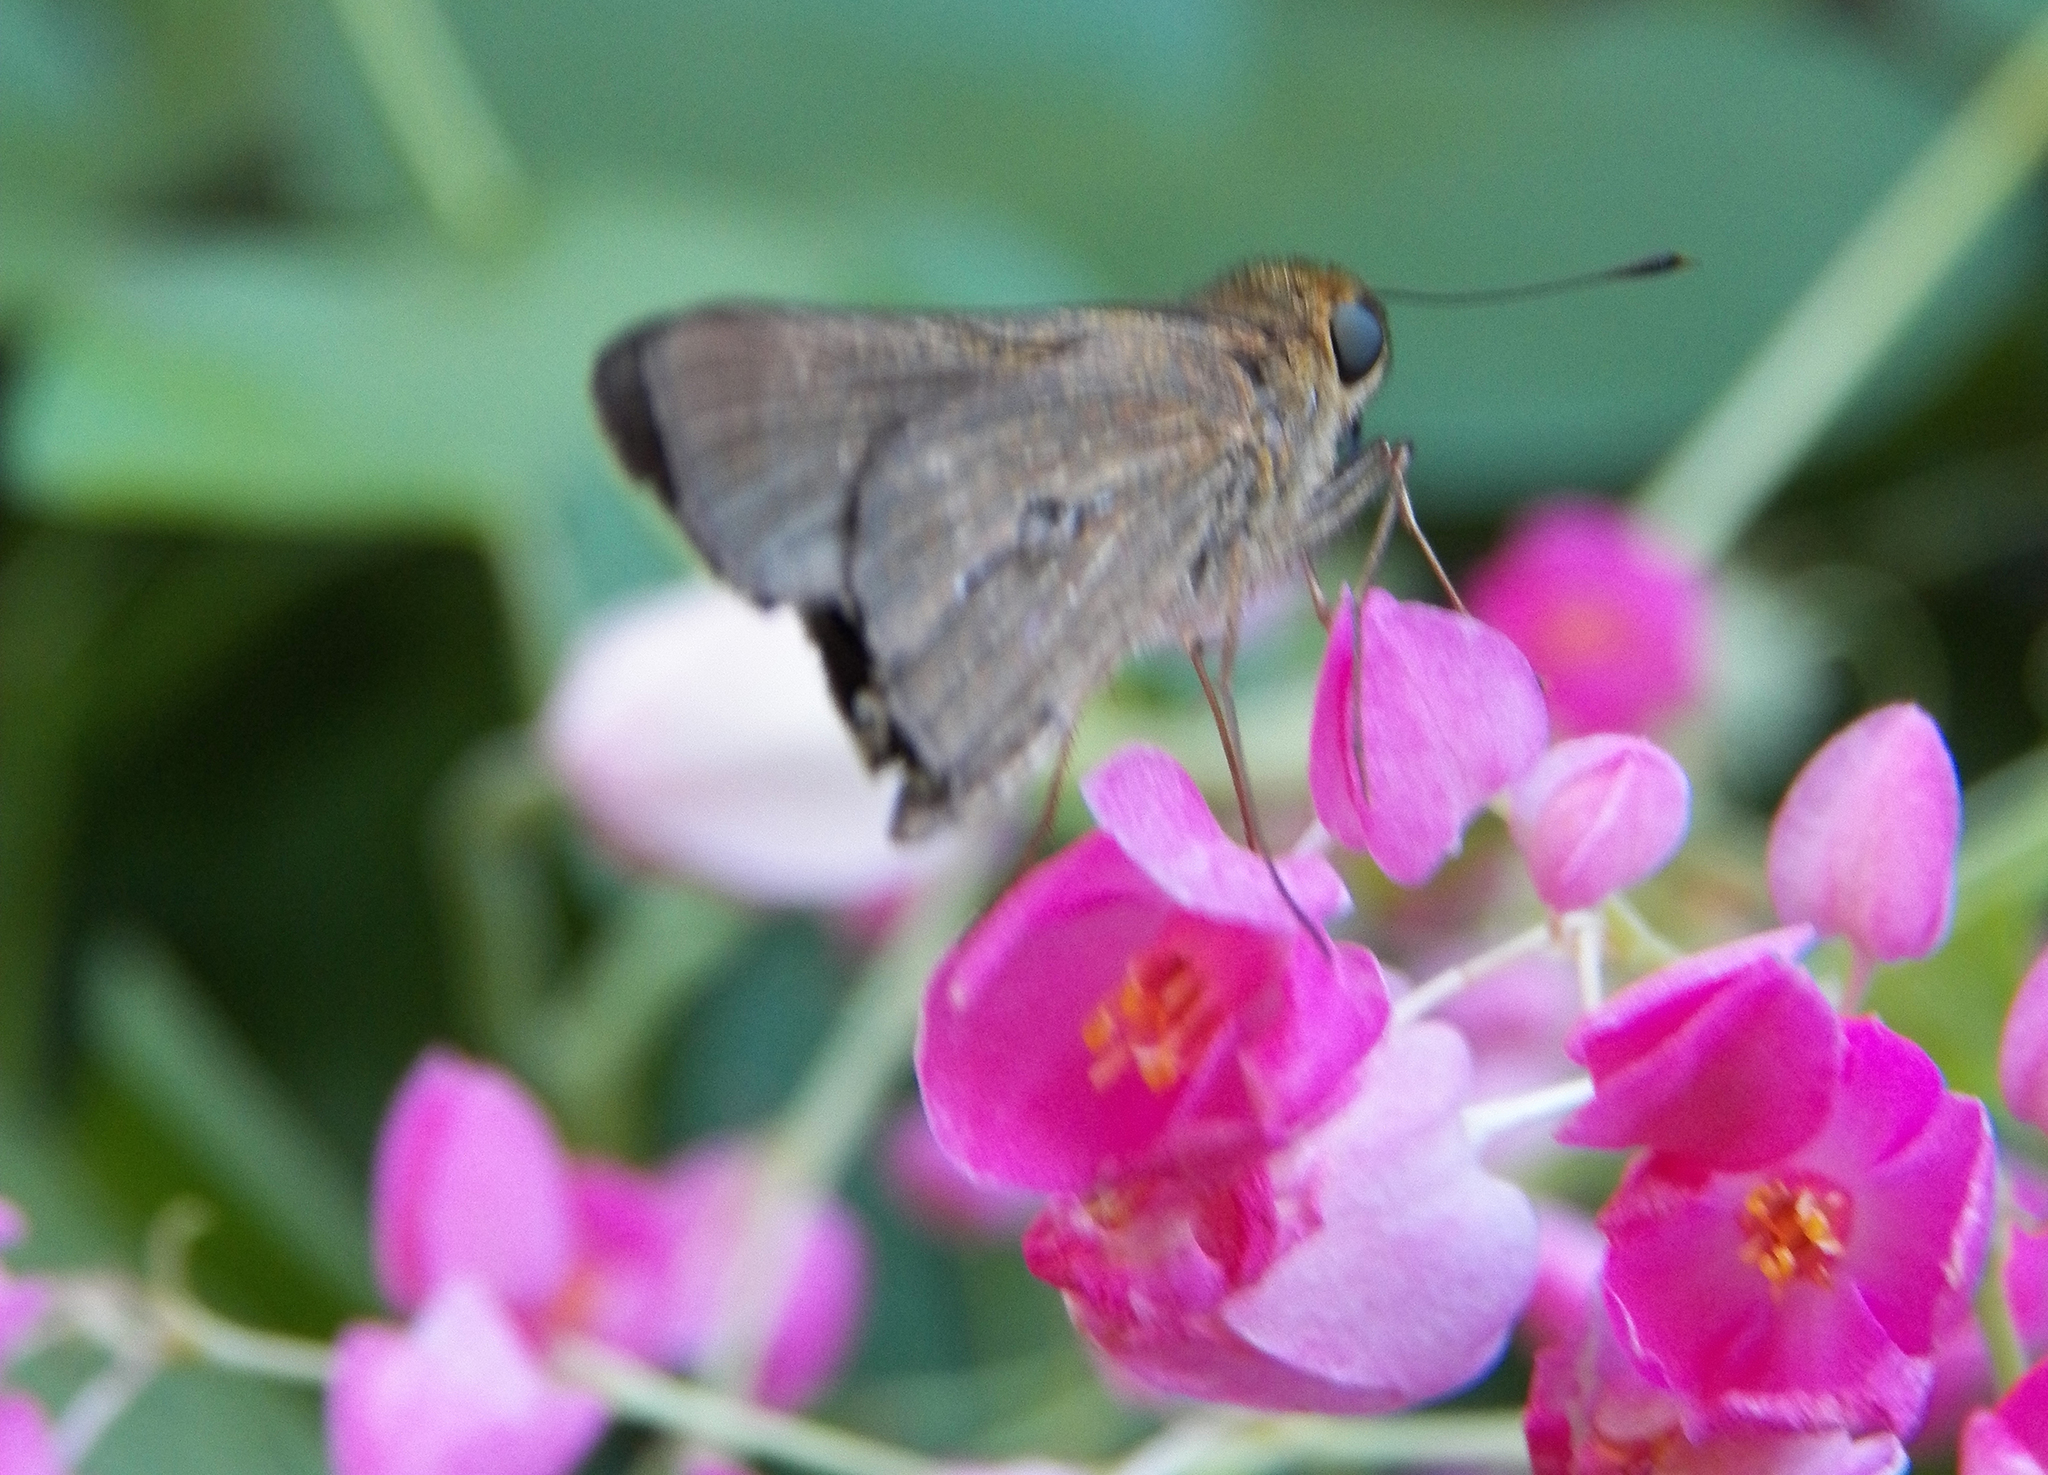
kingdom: Animalia
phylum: Arthropoda
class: Insecta
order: Lepidoptera
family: Hesperiidae
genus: Panoquina
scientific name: Panoquina ocola
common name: Ocola skipper
